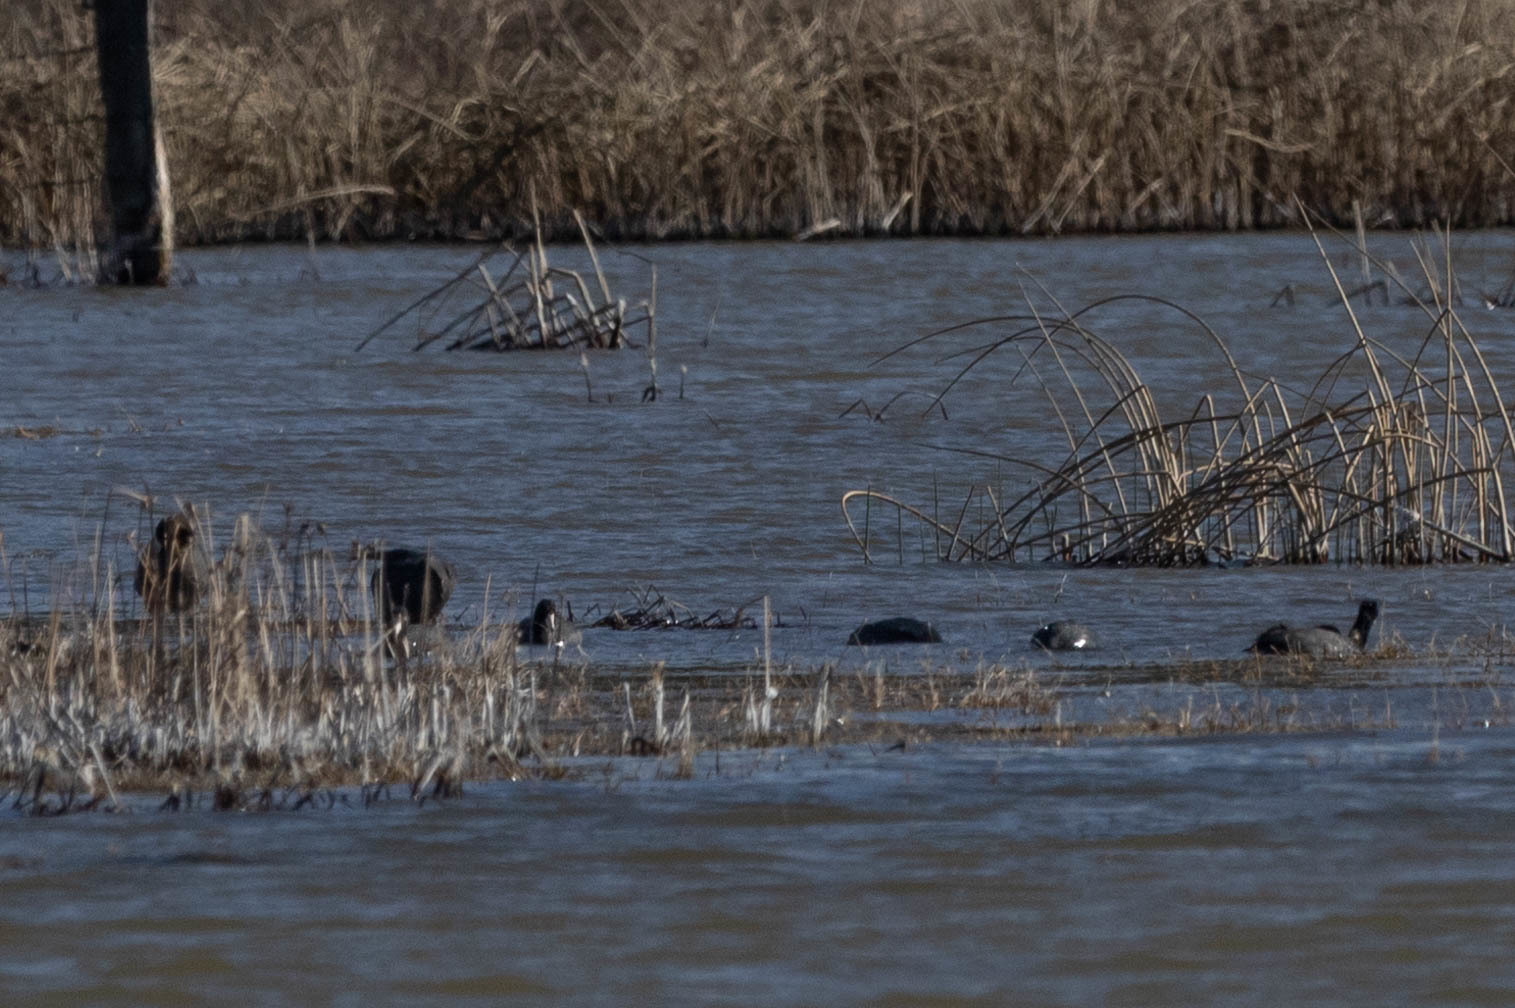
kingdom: Animalia
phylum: Chordata
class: Aves
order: Gruiformes
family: Rallidae
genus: Fulica
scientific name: Fulica americana
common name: American coot
